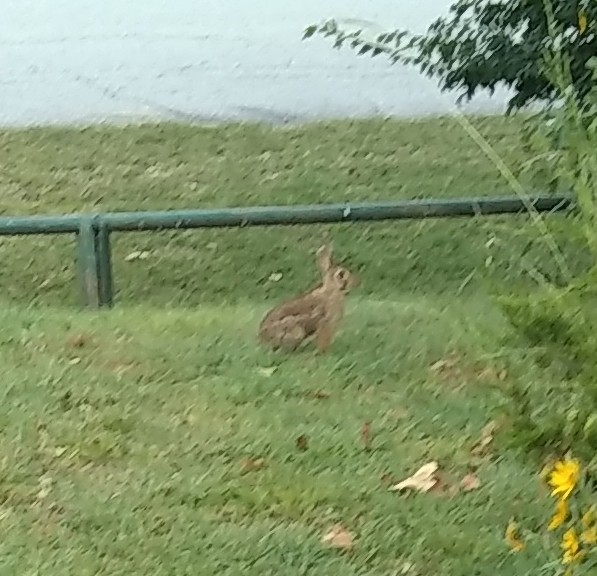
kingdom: Animalia
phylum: Chordata
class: Mammalia
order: Lagomorpha
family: Leporidae
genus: Sylvilagus
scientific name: Sylvilagus floridanus
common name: Eastern cottontail
